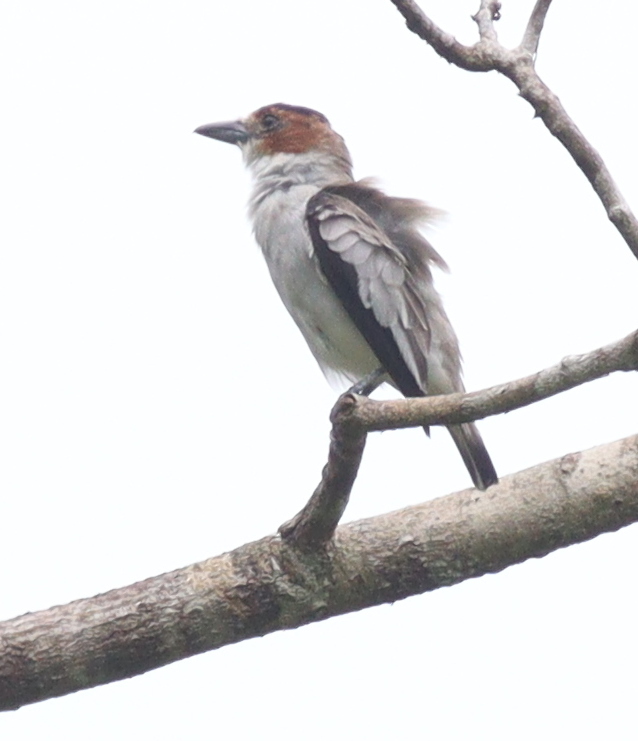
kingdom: Animalia
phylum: Chordata
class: Aves
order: Passeriformes
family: Cotingidae
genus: Tityra
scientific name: Tityra inquisitor
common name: Black-crowned tityra
